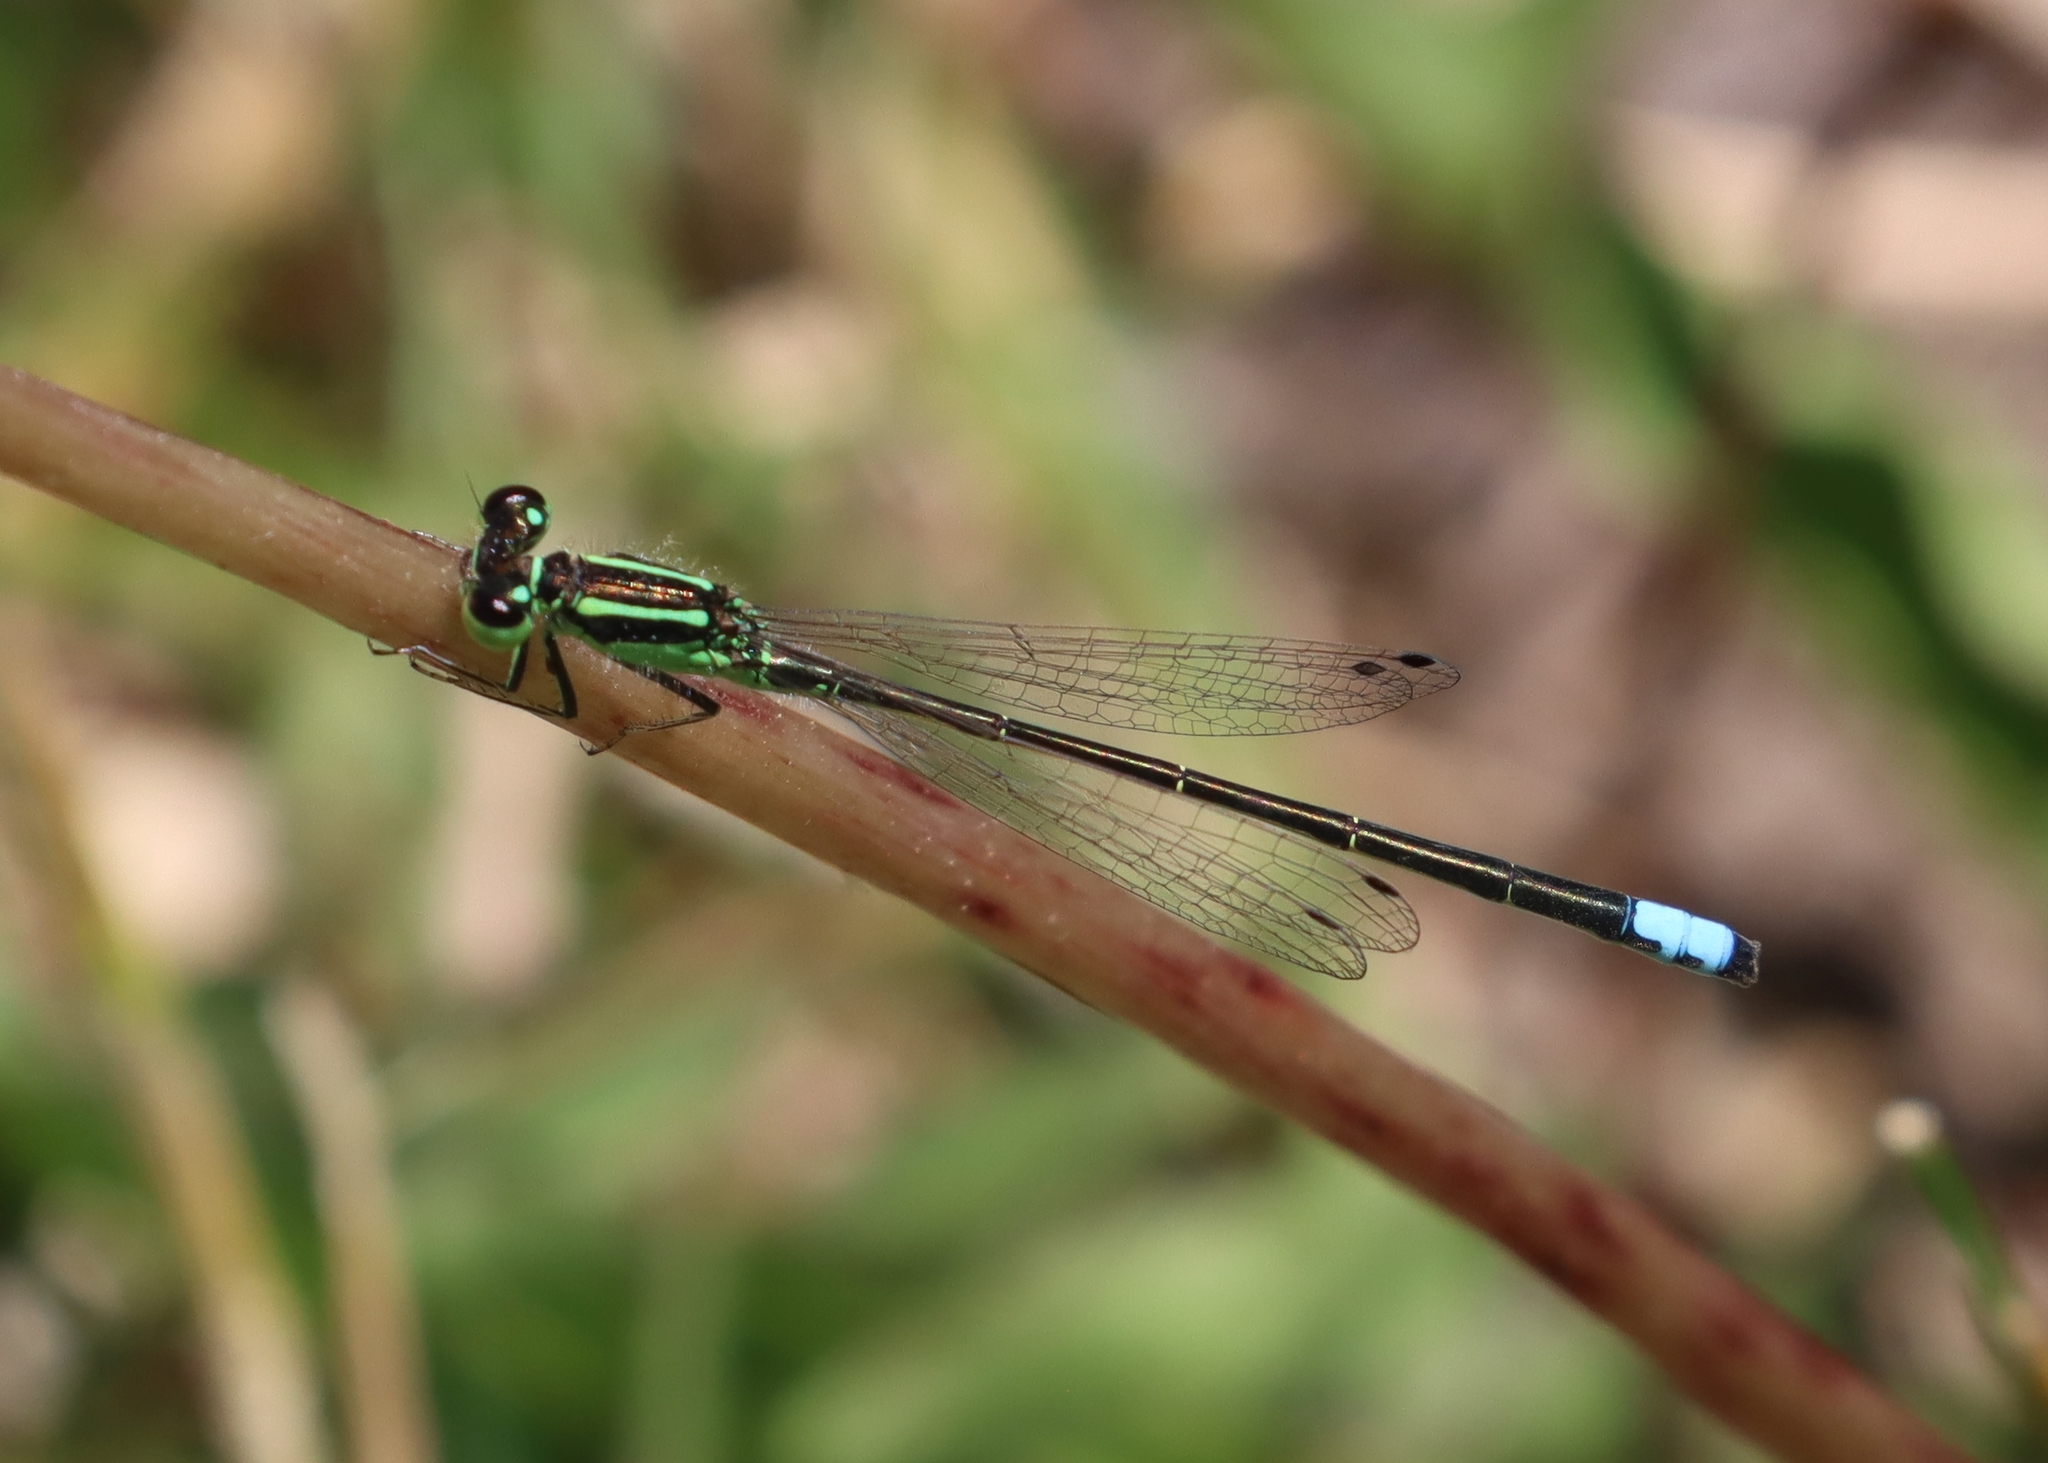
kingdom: Animalia
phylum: Arthropoda
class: Insecta
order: Odonata
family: Coenagrionidae
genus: Ischnura
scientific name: Ischnura verticalis
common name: Eastern forktail
